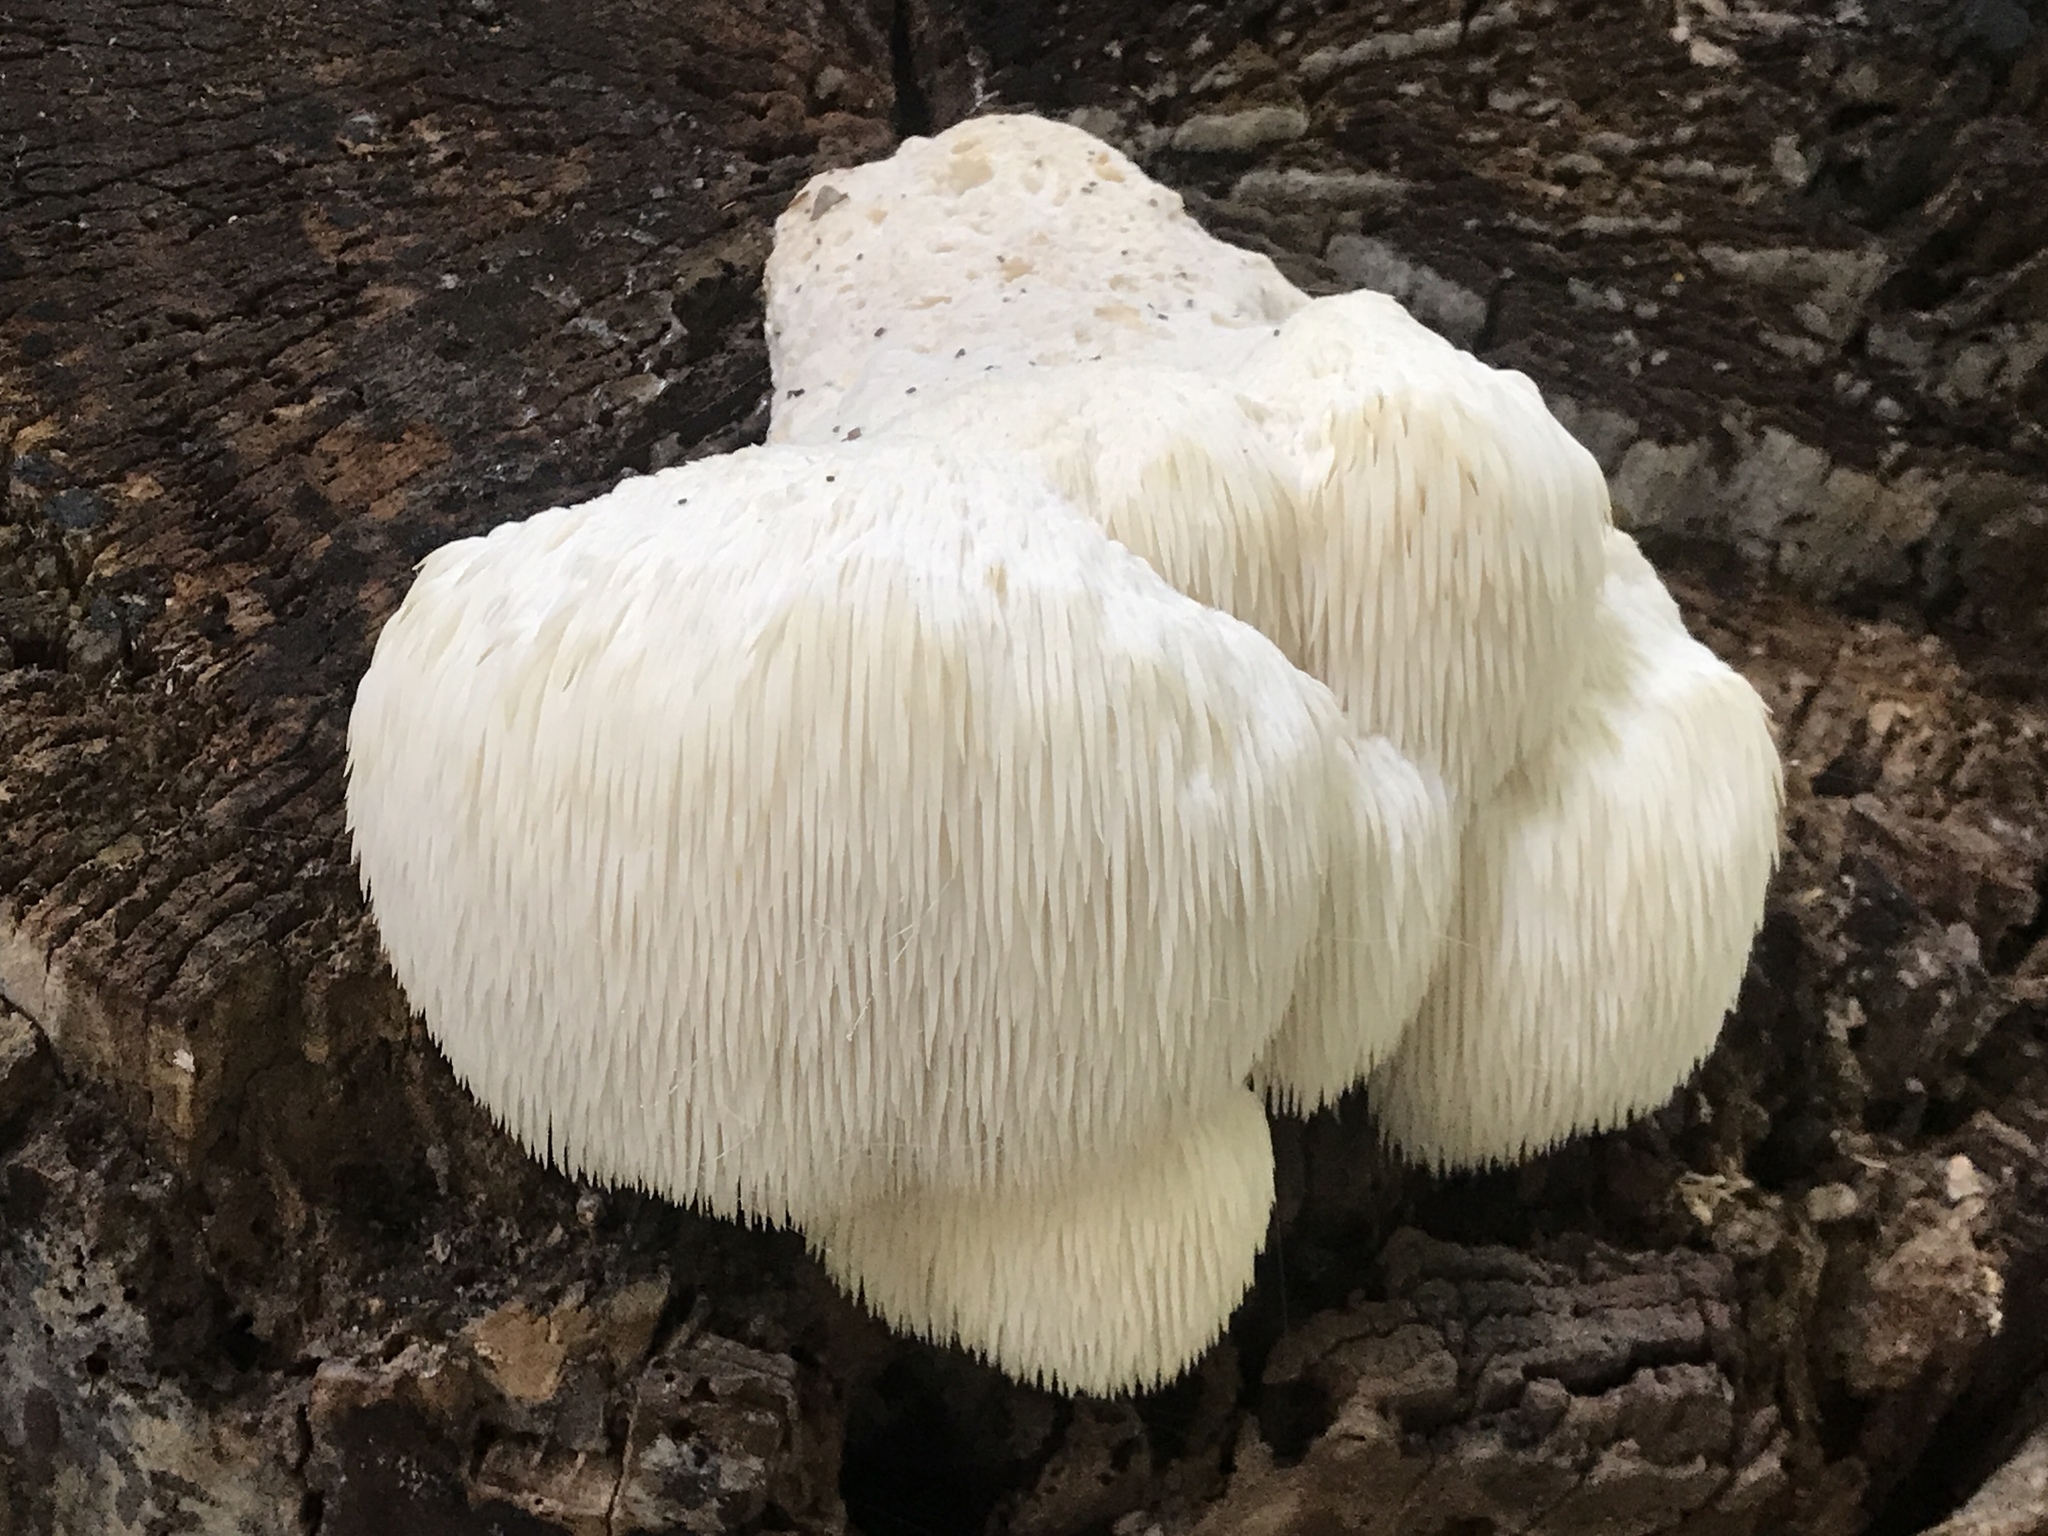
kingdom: Fungi
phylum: Basidiomycota
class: Agaricomycetes
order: Russulales
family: Hericiaceae
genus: Hericium
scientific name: Hericium erinaceus
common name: Bearded tooth
